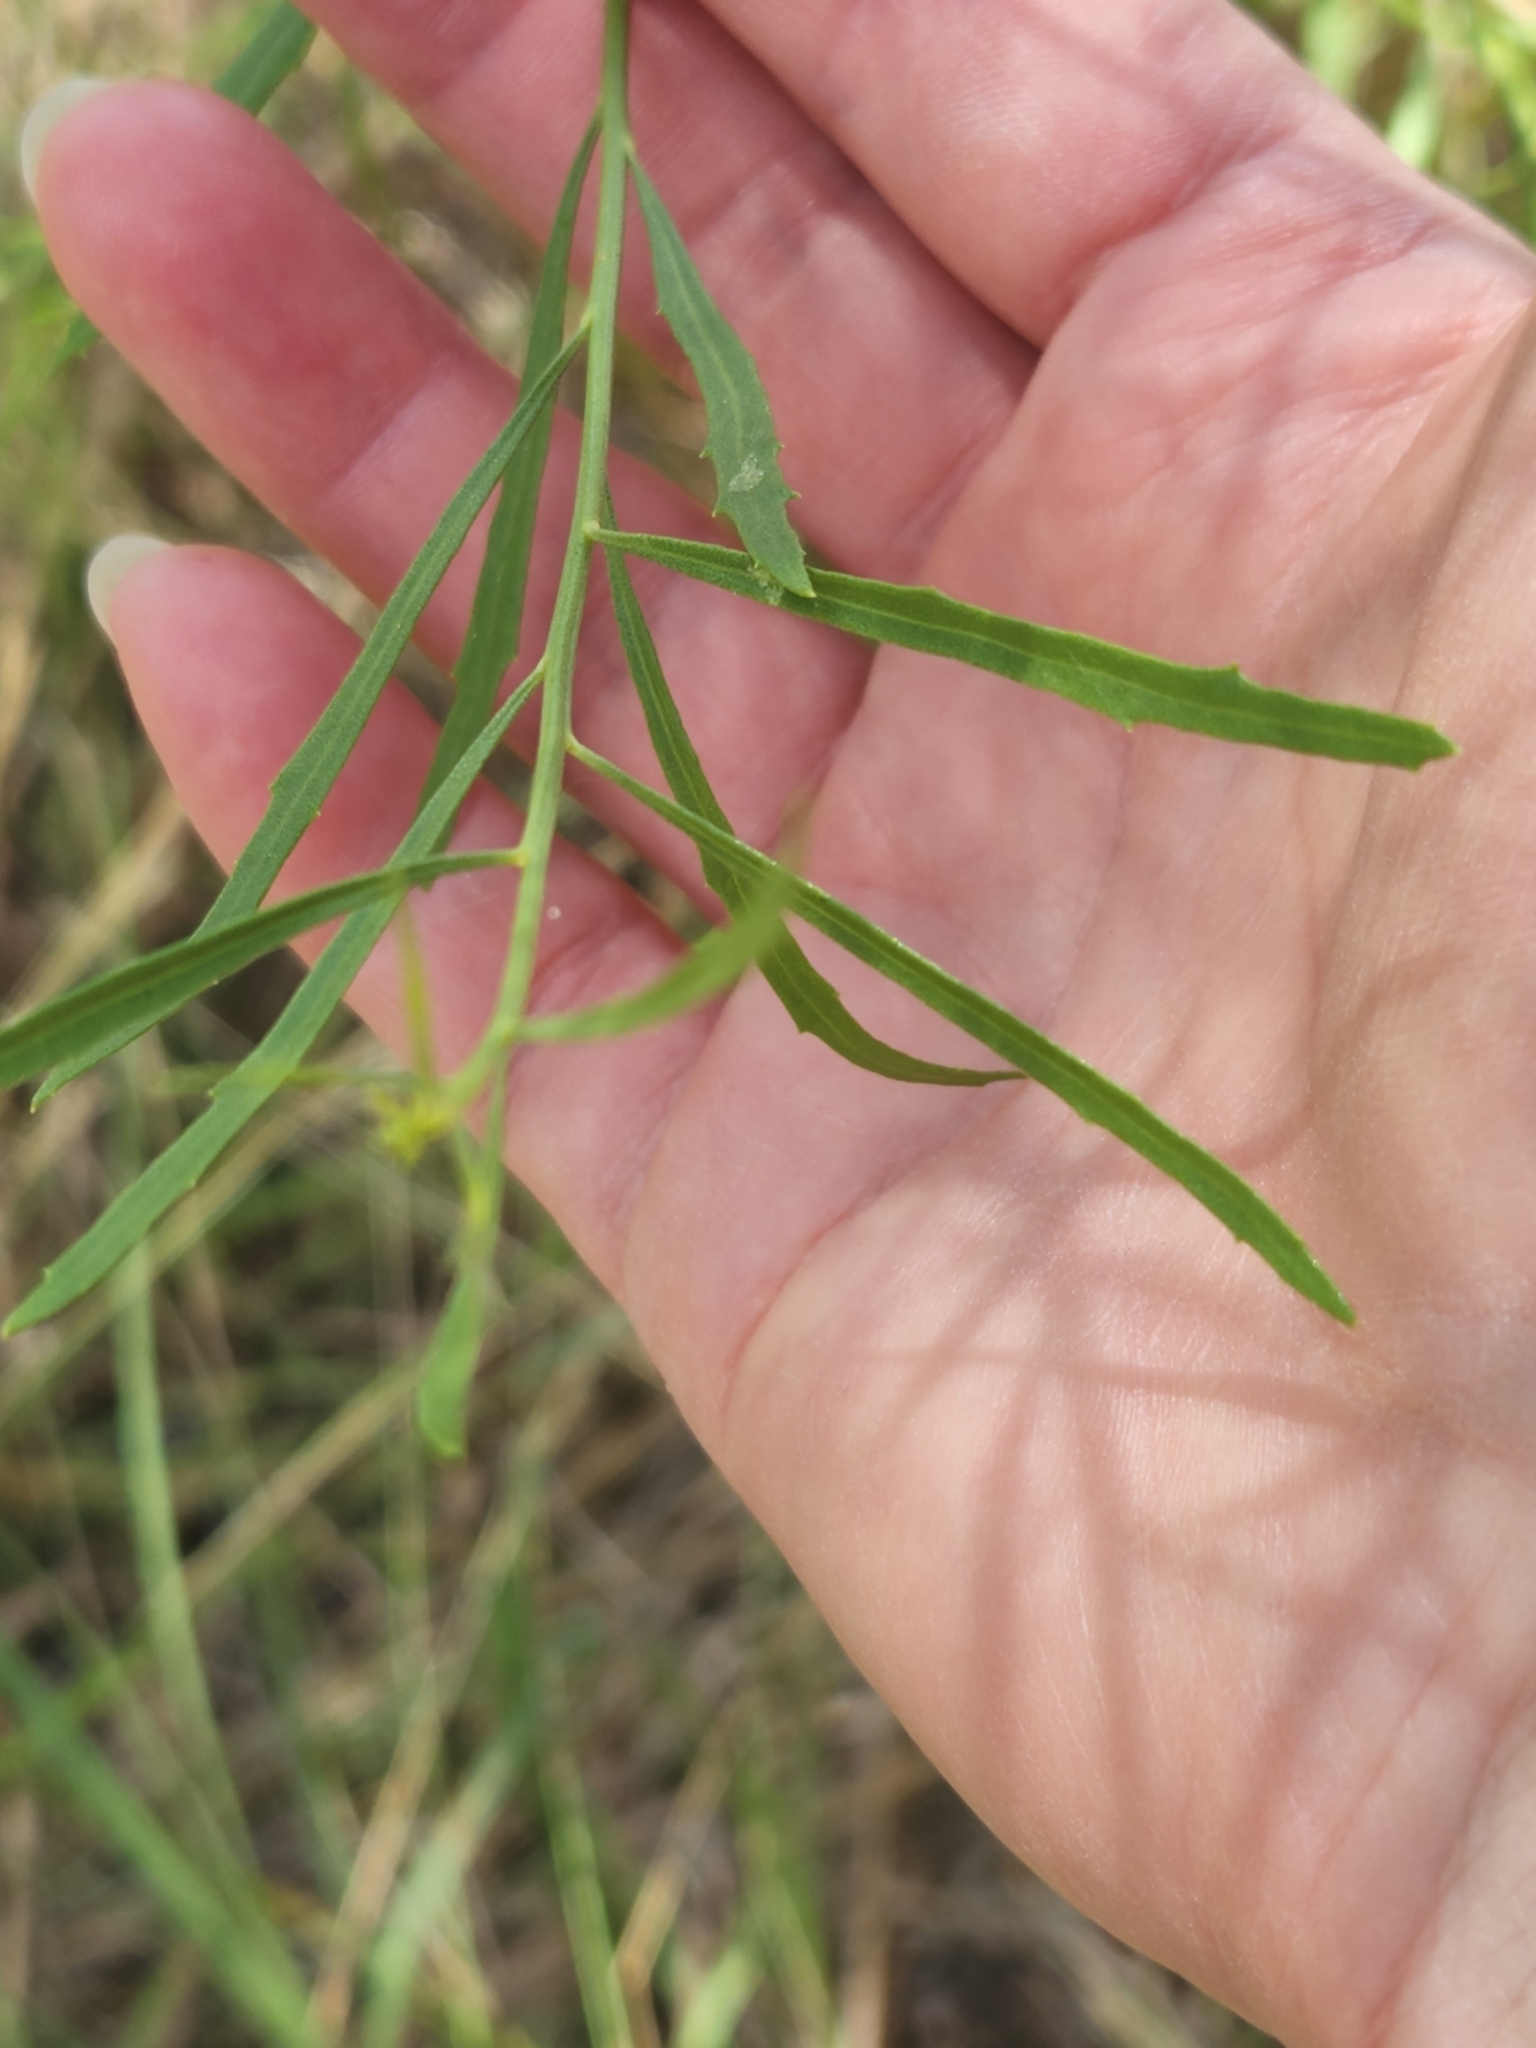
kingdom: Plantae
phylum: Tracheophyta
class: Magnoliopsida
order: Asterales
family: Asteraceae
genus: Baccharis
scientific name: Baccharis neglecta
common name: Roosevelt-weed
